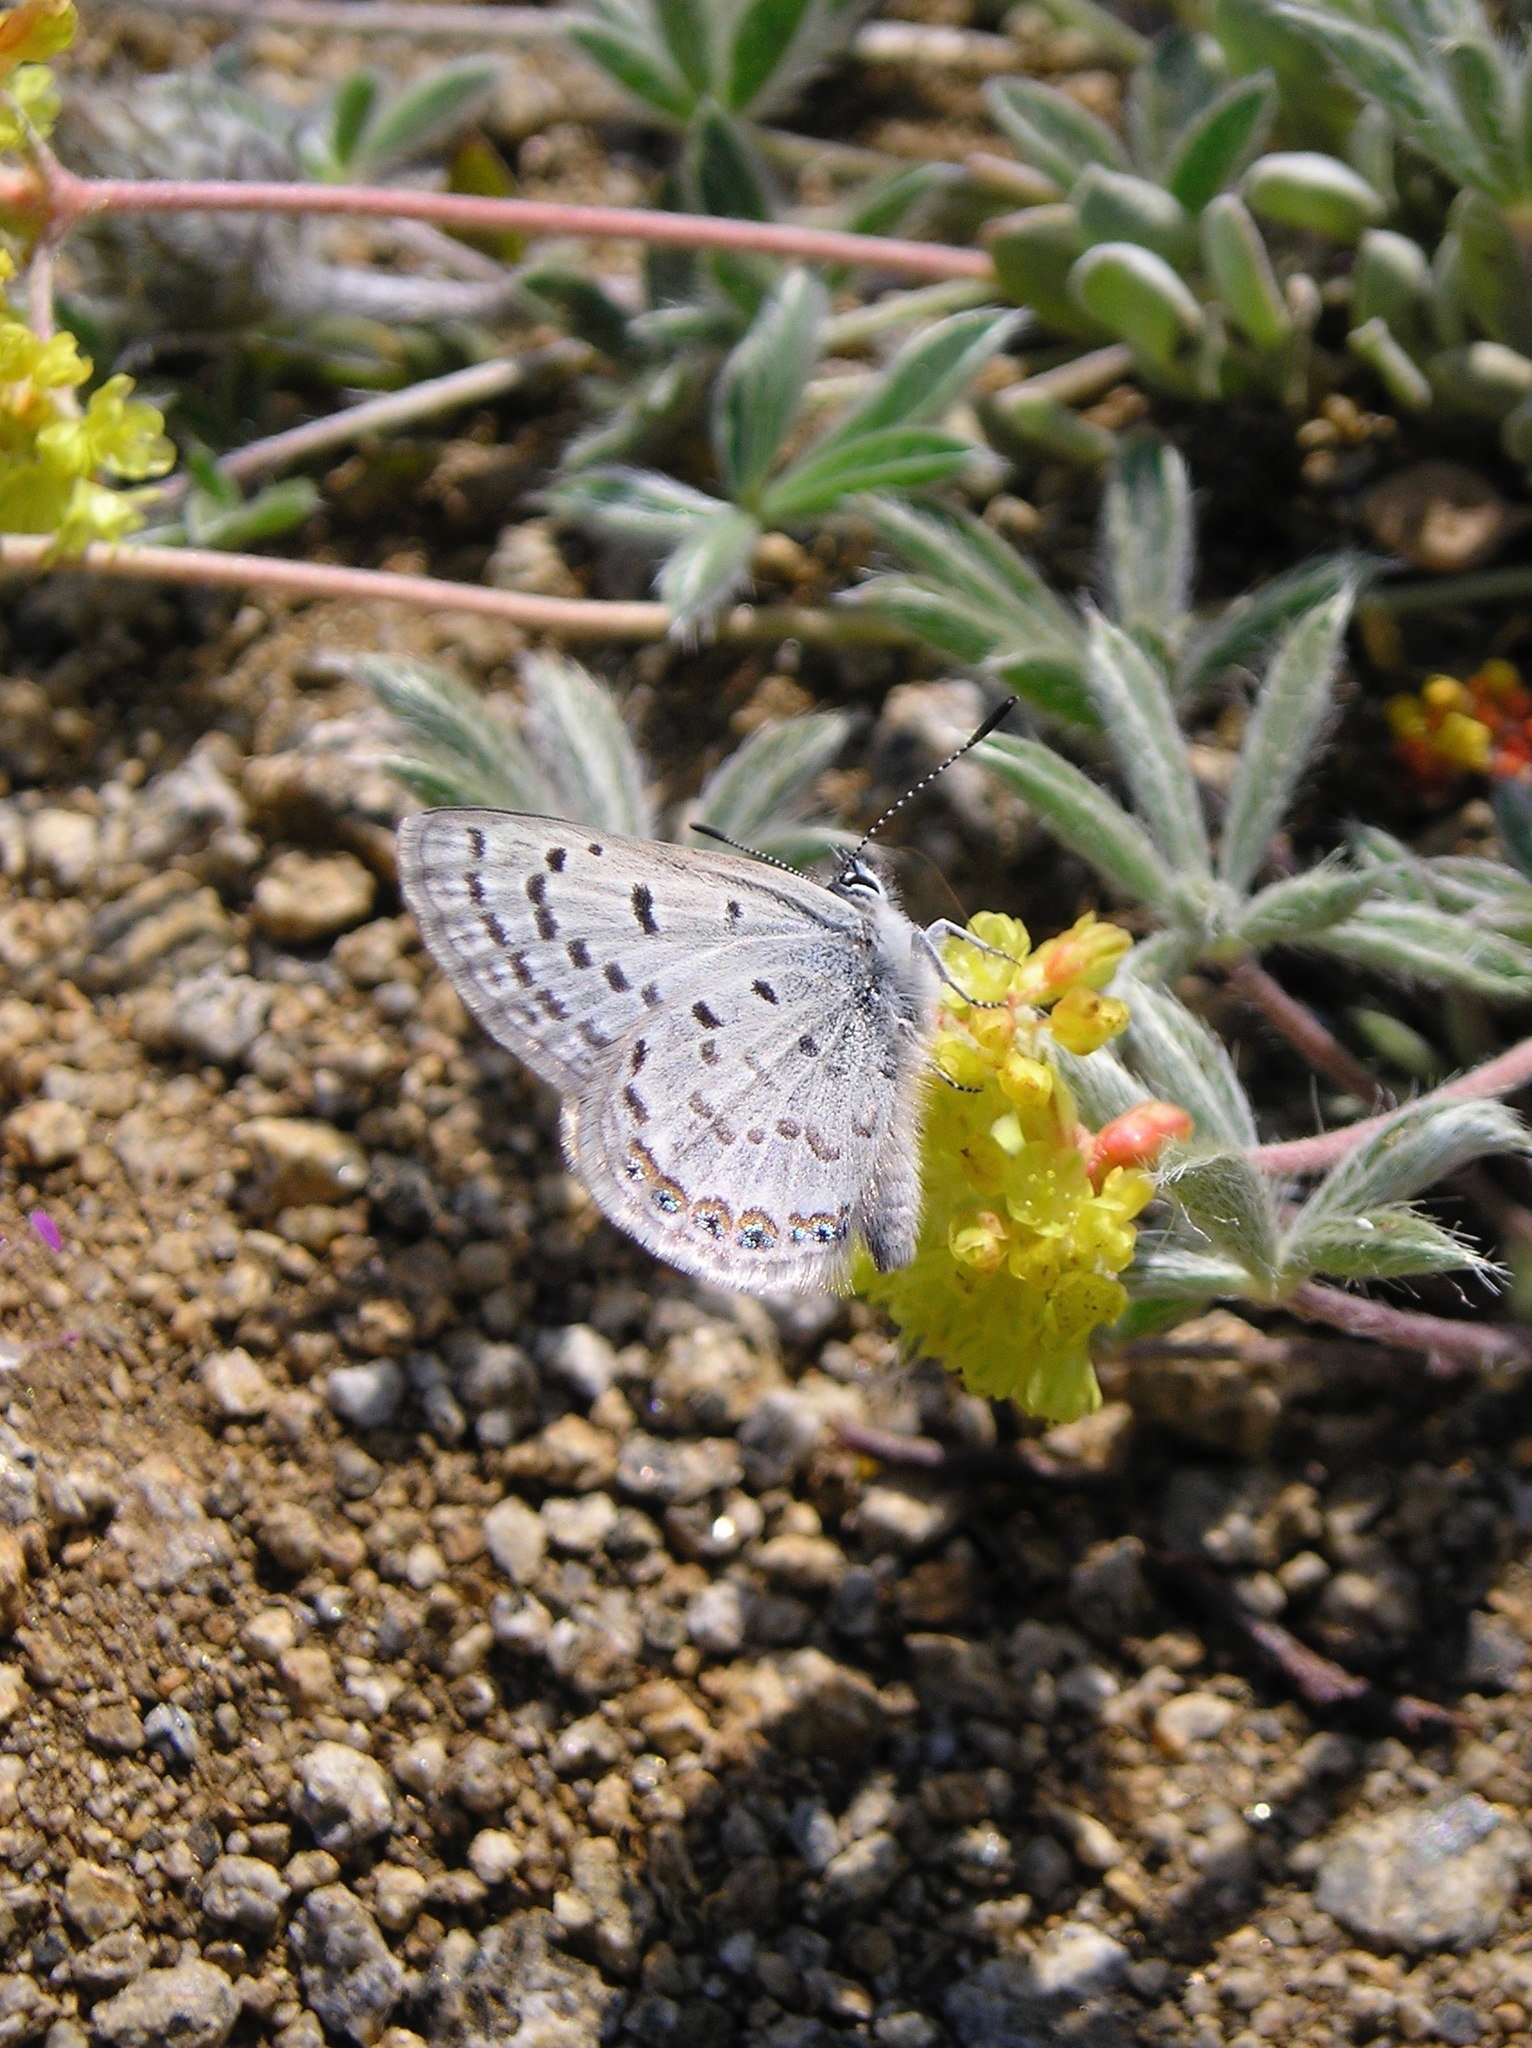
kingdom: Animalia
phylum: Arthropoda
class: Insecta
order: Lepidoptera
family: Lycaenidae
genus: Icaricia
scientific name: Icaricia shasta
